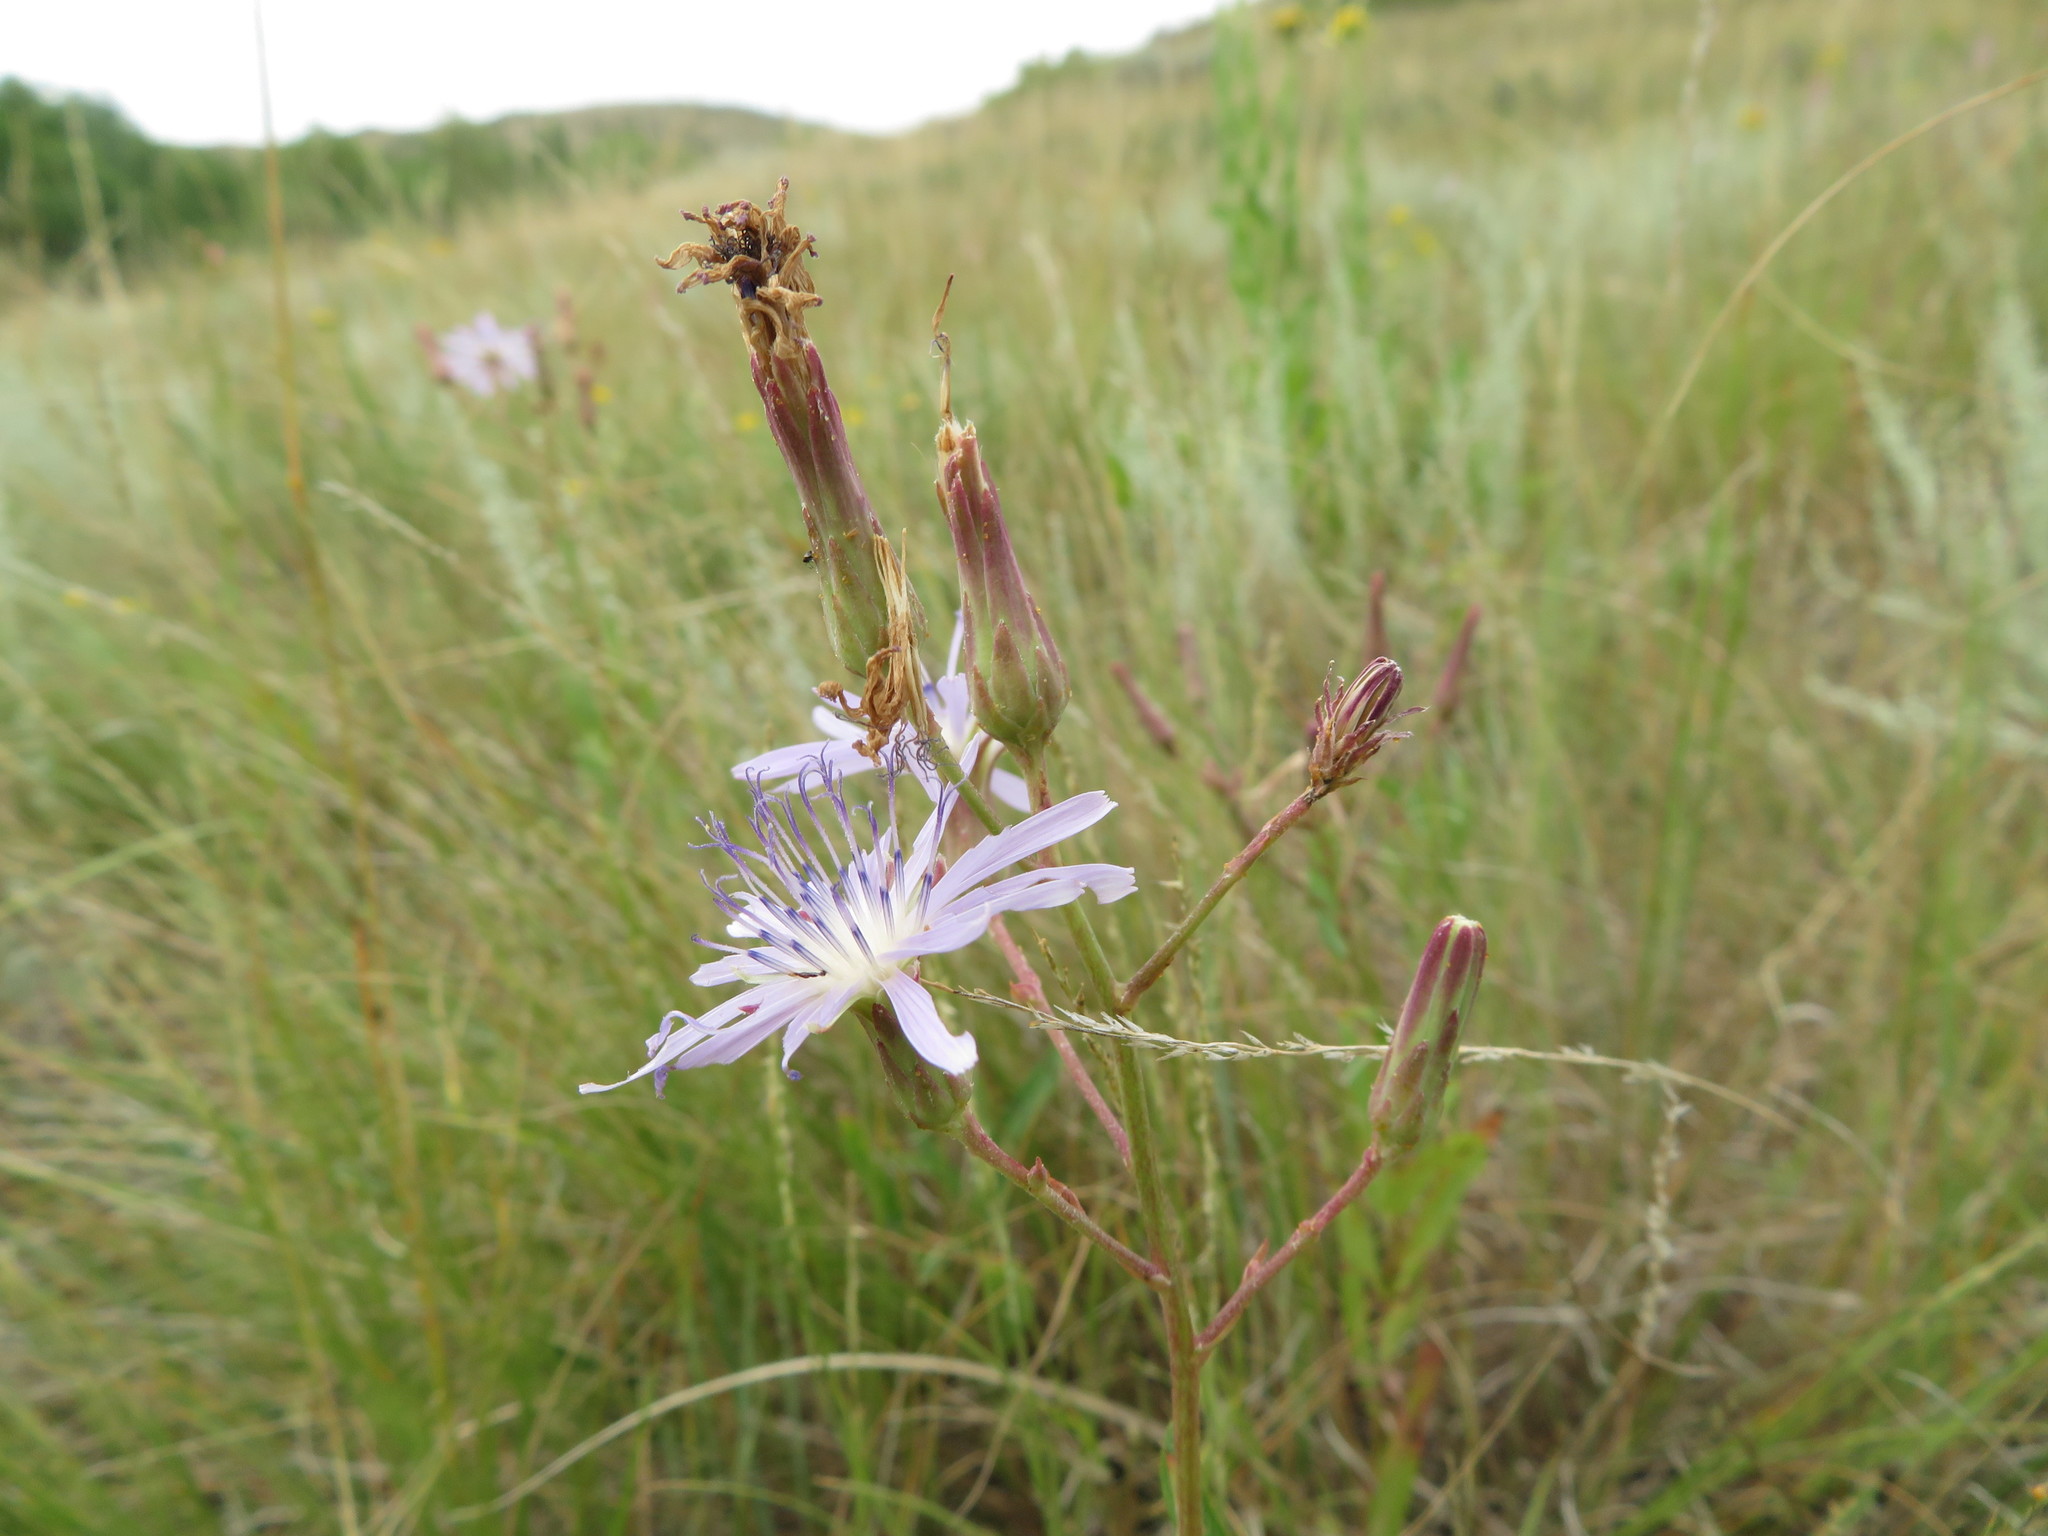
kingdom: Plantae
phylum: Tracheophyta
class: Magnoliopsida
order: Asterales
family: Asteraceae
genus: Lactuca
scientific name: Lactuca pulchella
